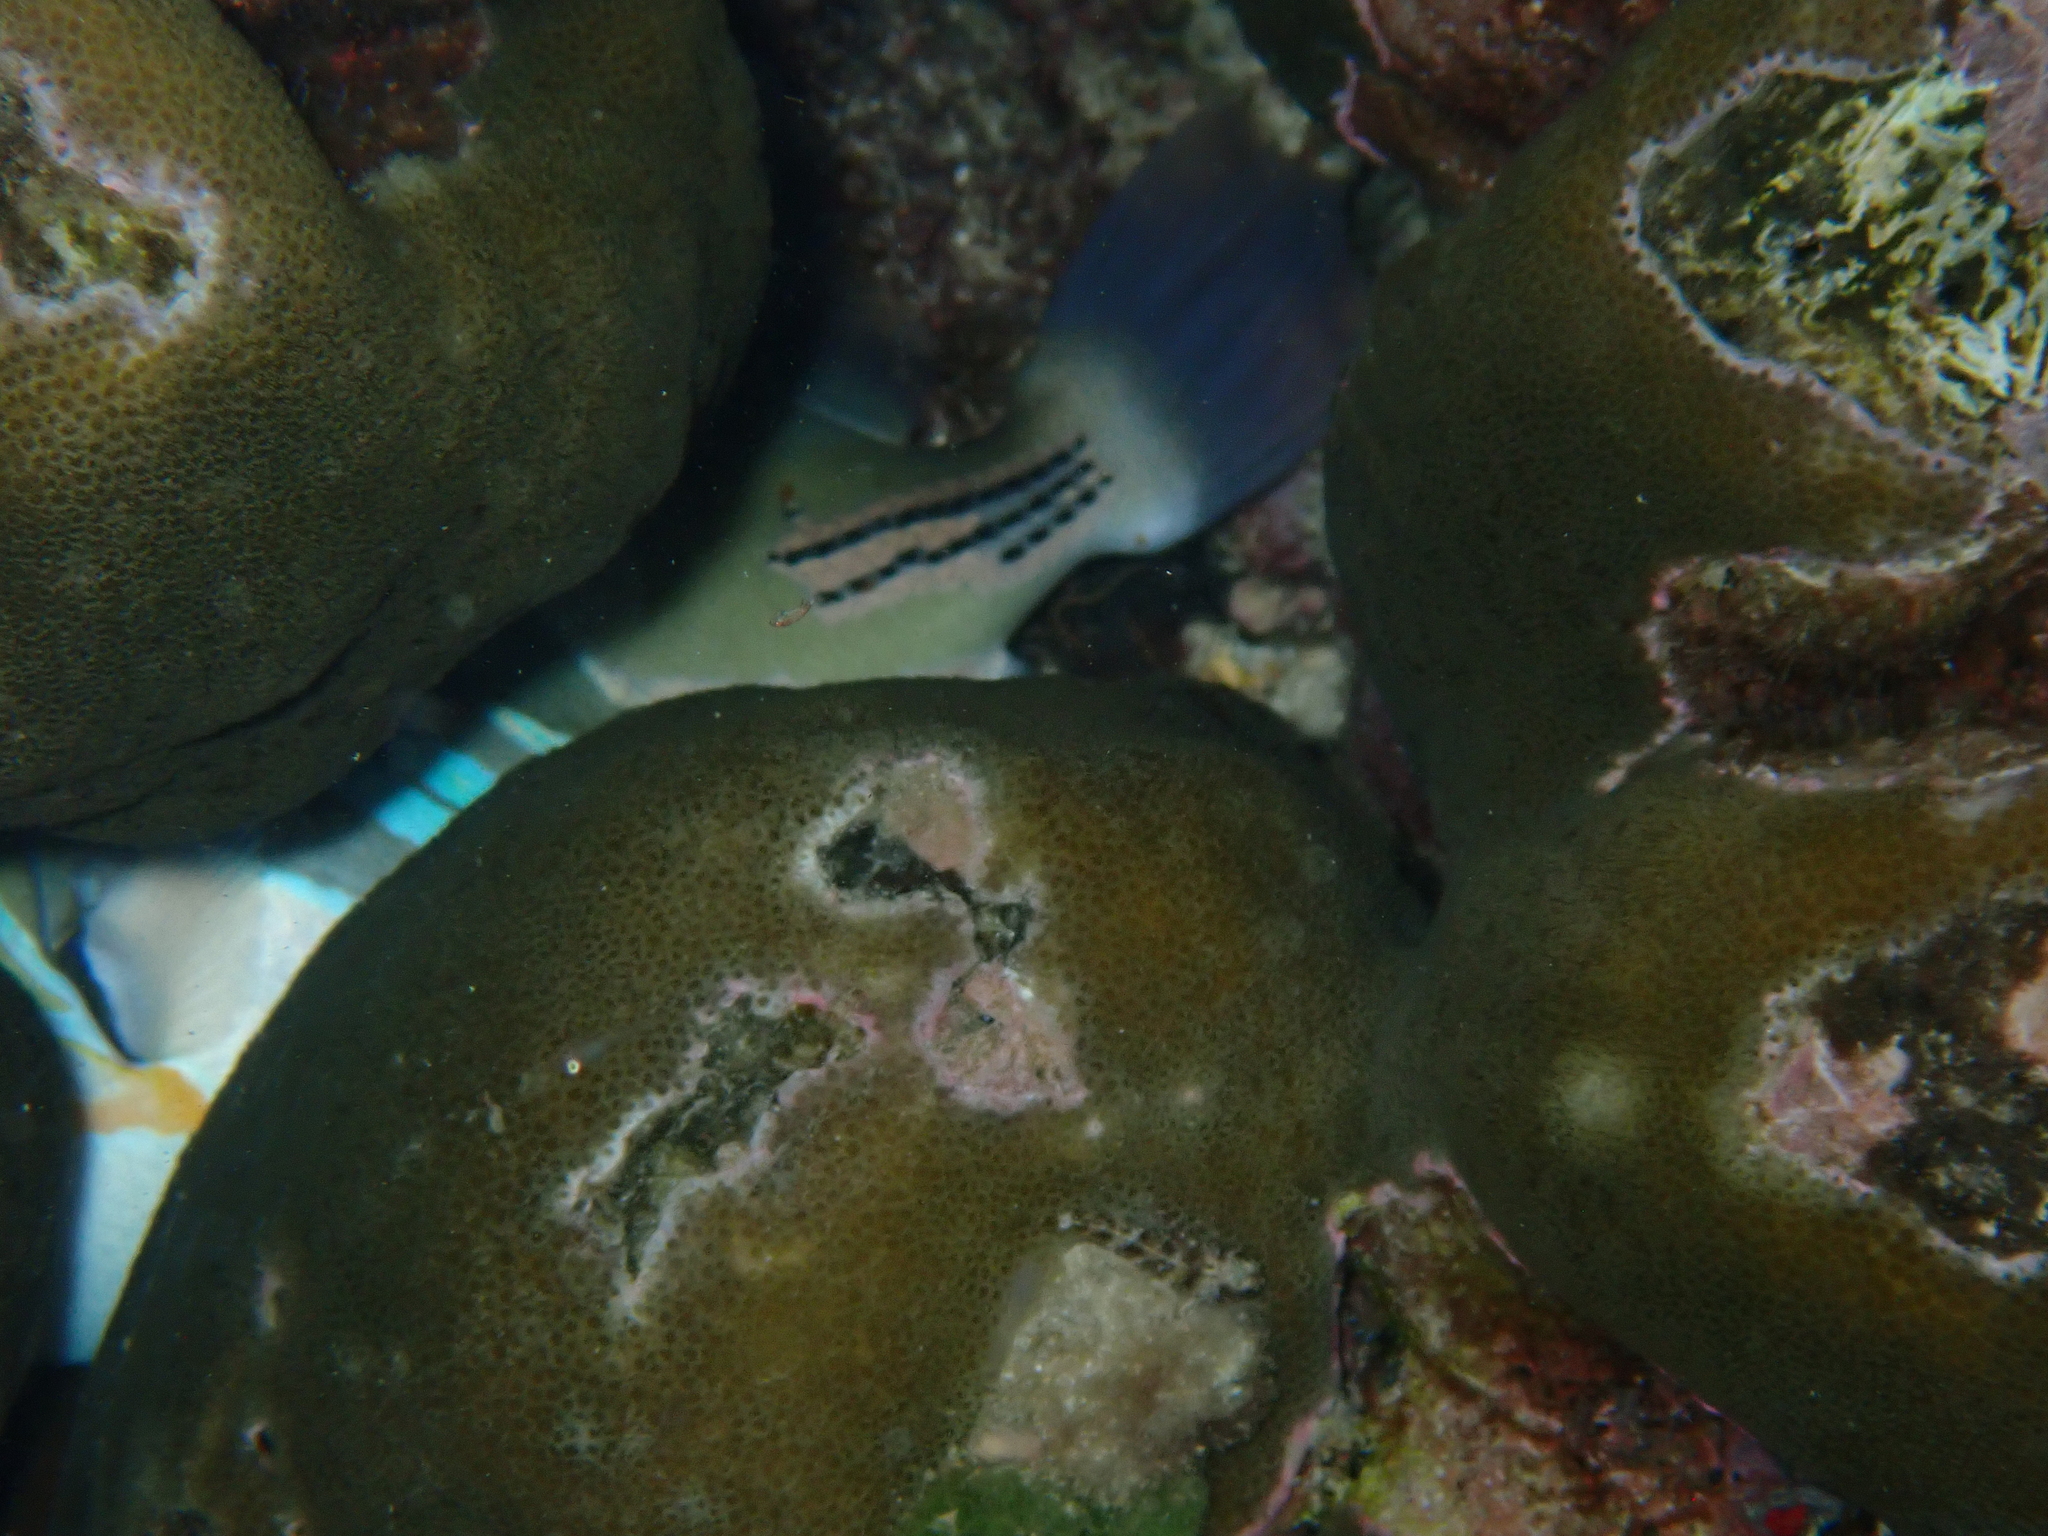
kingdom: Animalia
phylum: Chordata
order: Tetraodontiformes
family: Balistidae
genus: Rhinecanthus
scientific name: Rhinecanthus aculeatus
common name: White-banded triggerfish
